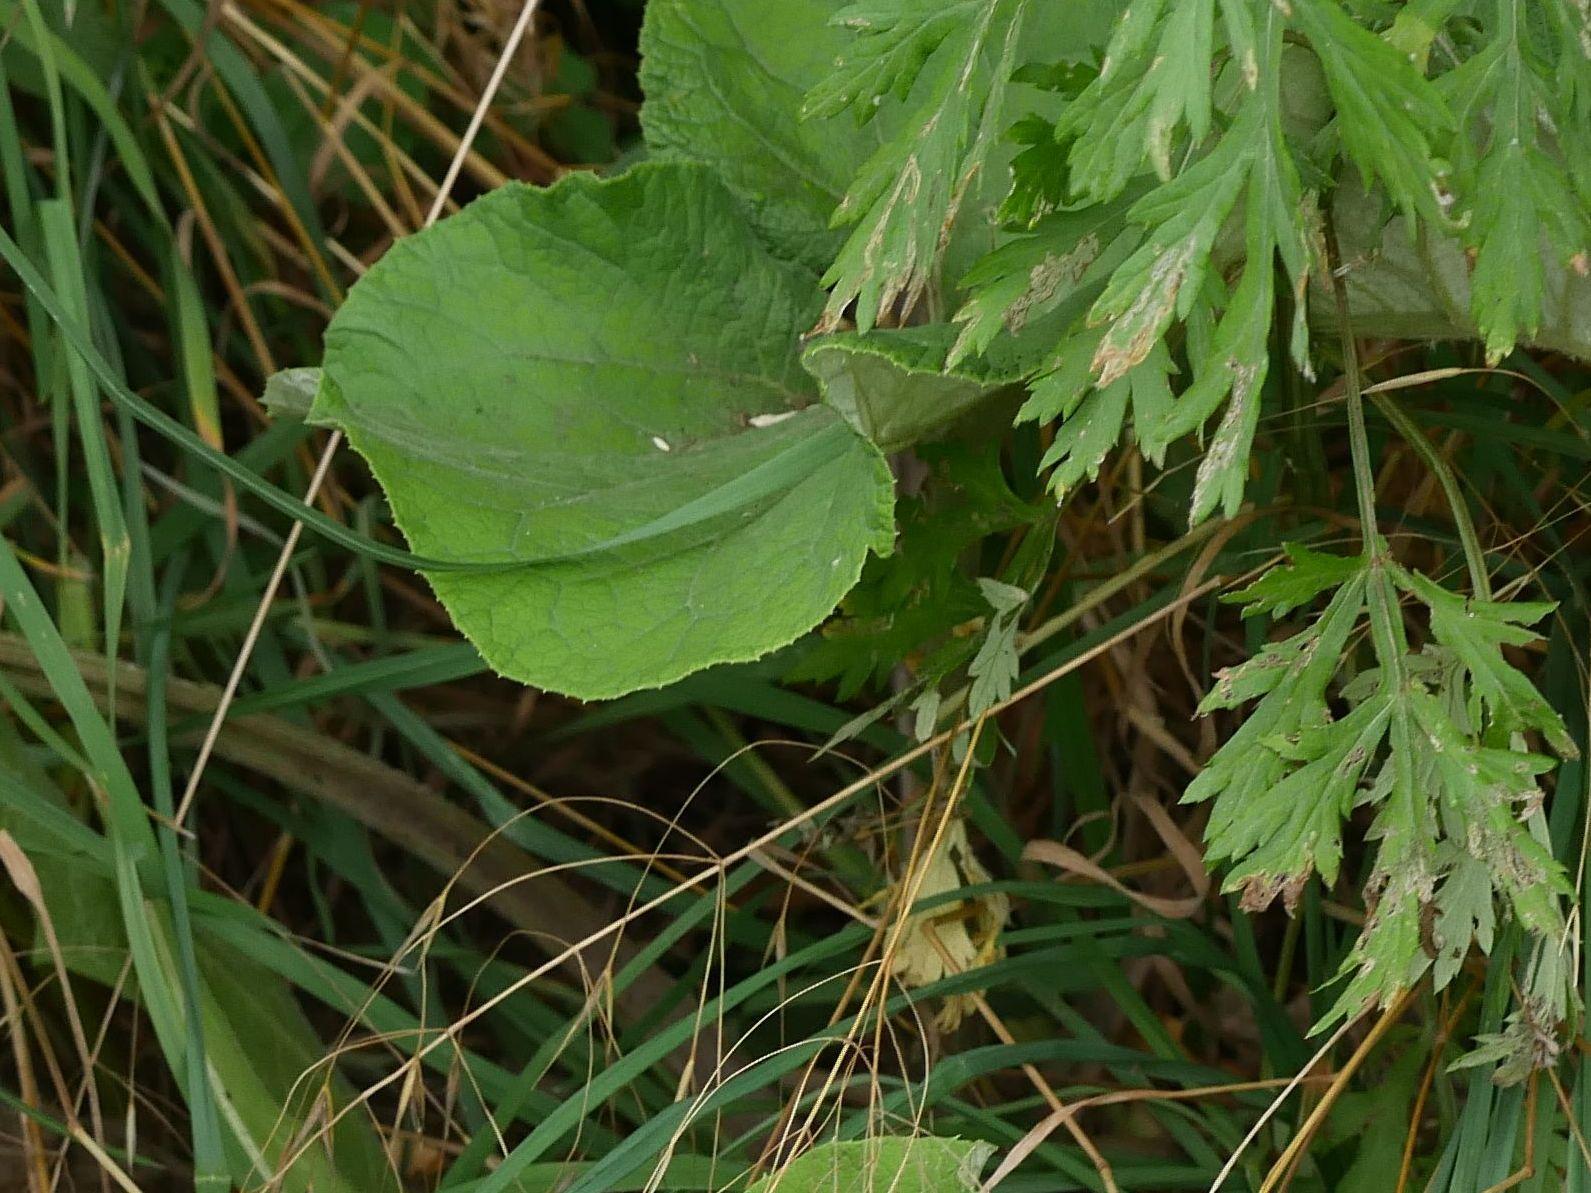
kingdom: Plantae
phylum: Tracheophyta
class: Magnoliopsida
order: Asterales
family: Asteraceae
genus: Artemisia
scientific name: Artemisia vulgaris
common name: Mugwort
